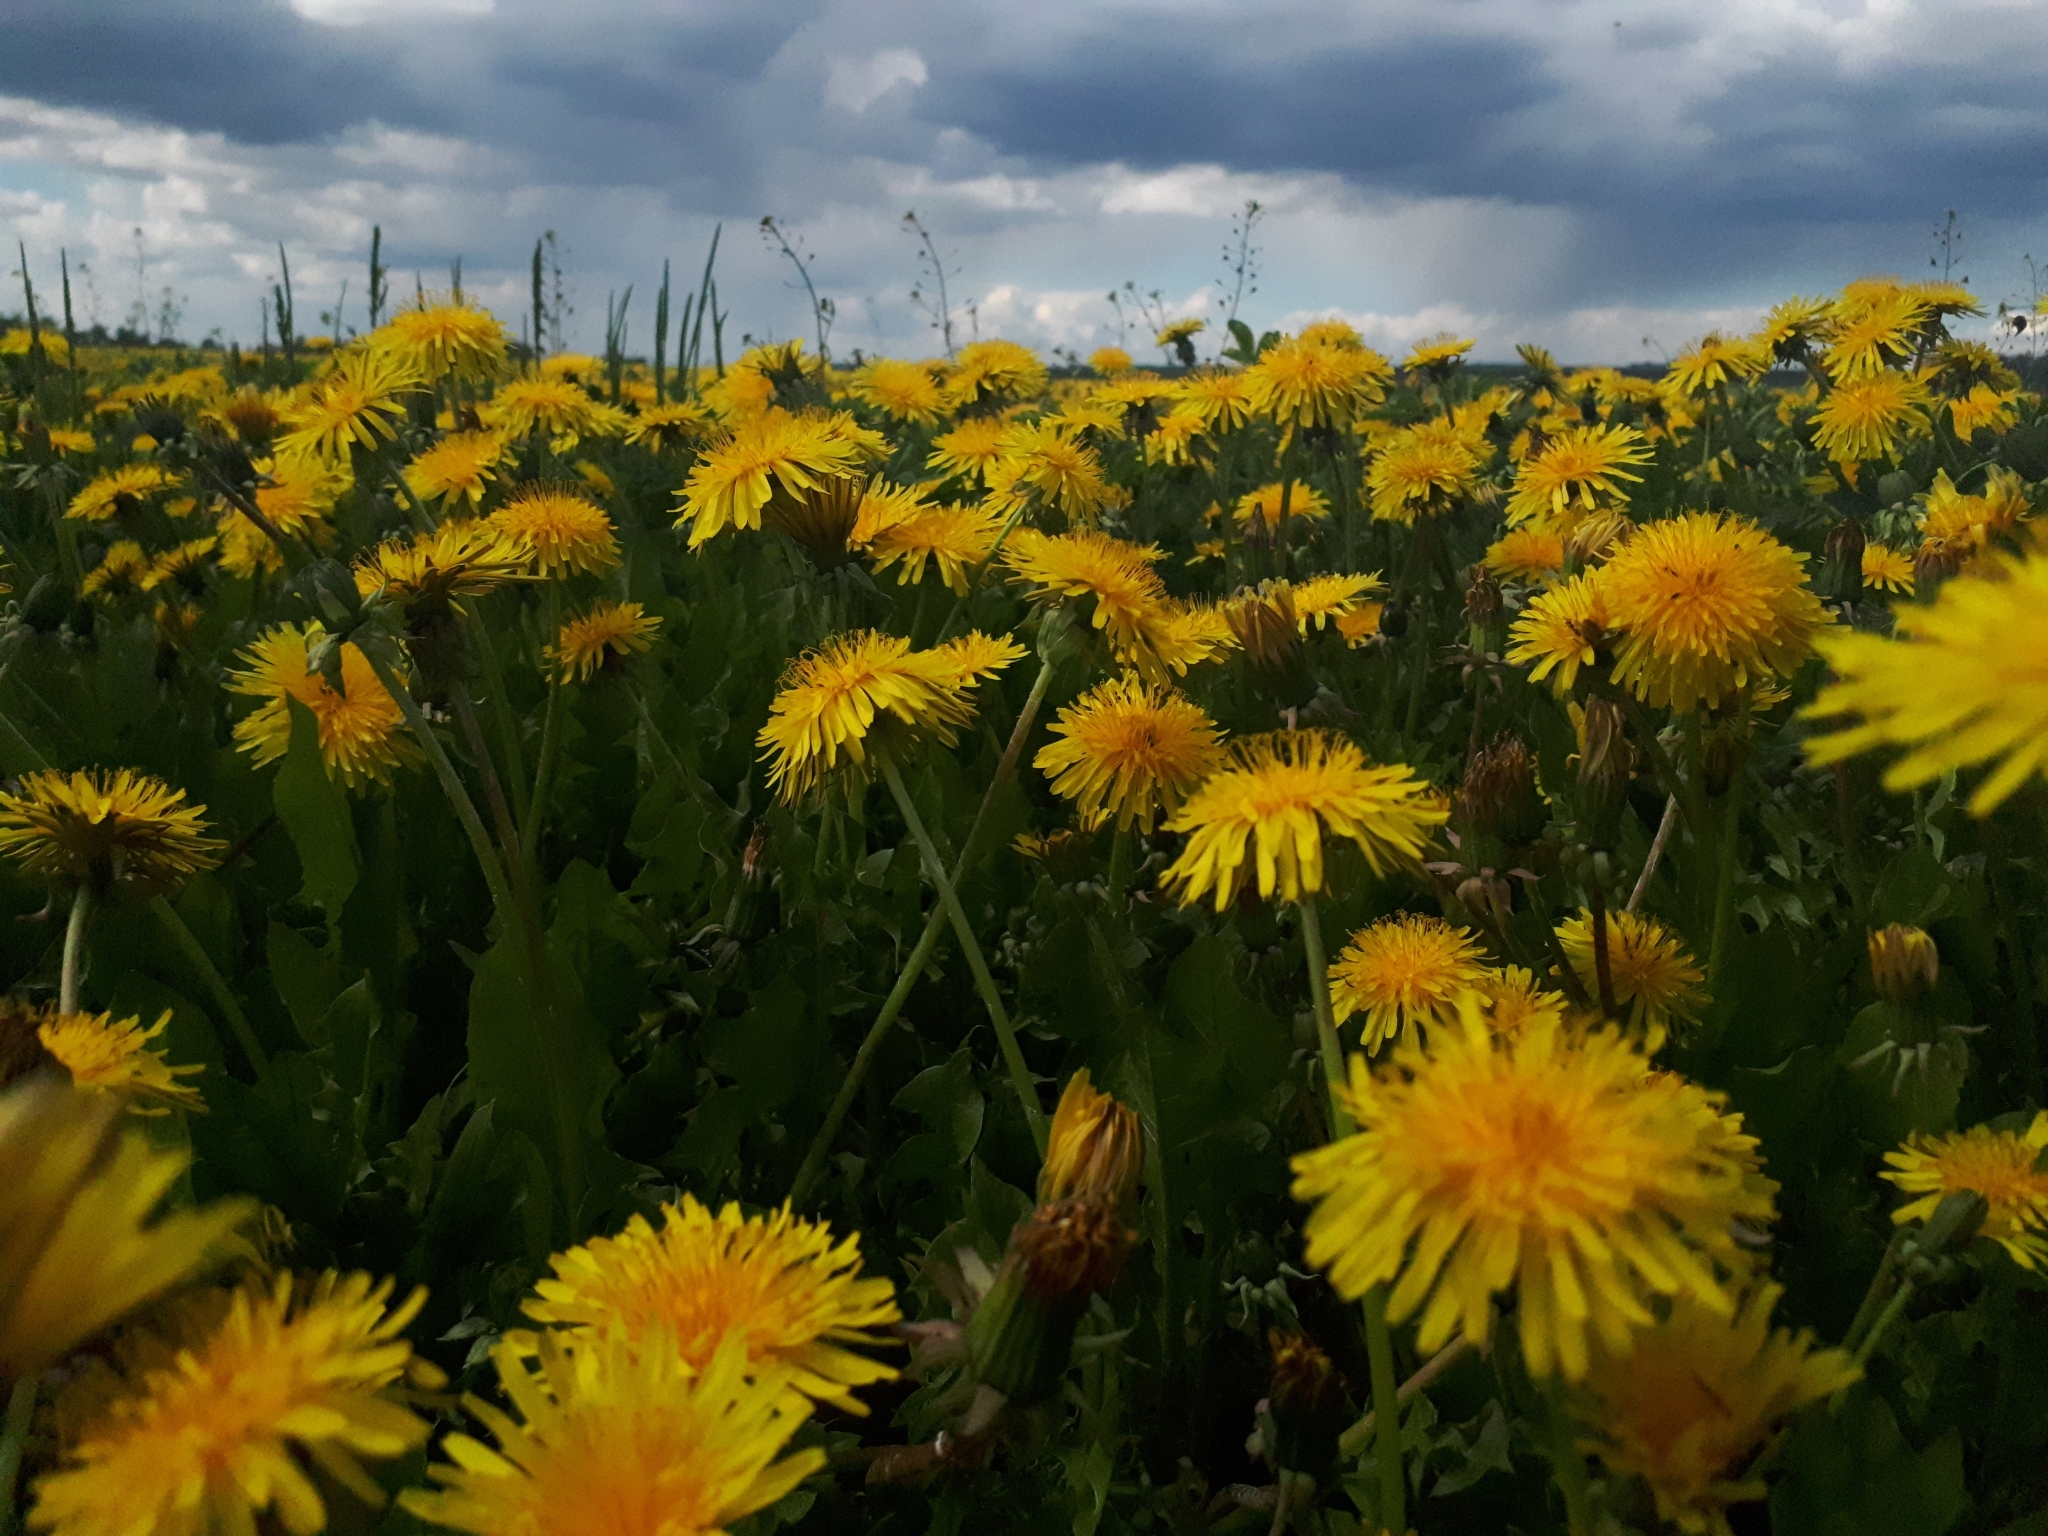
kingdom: Plantae
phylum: Tracheophyta
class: Magnoliopsida
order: Asterales
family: Asteraceae
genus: Taraxacum
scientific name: Taraxacum officinale
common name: Common dandelion
